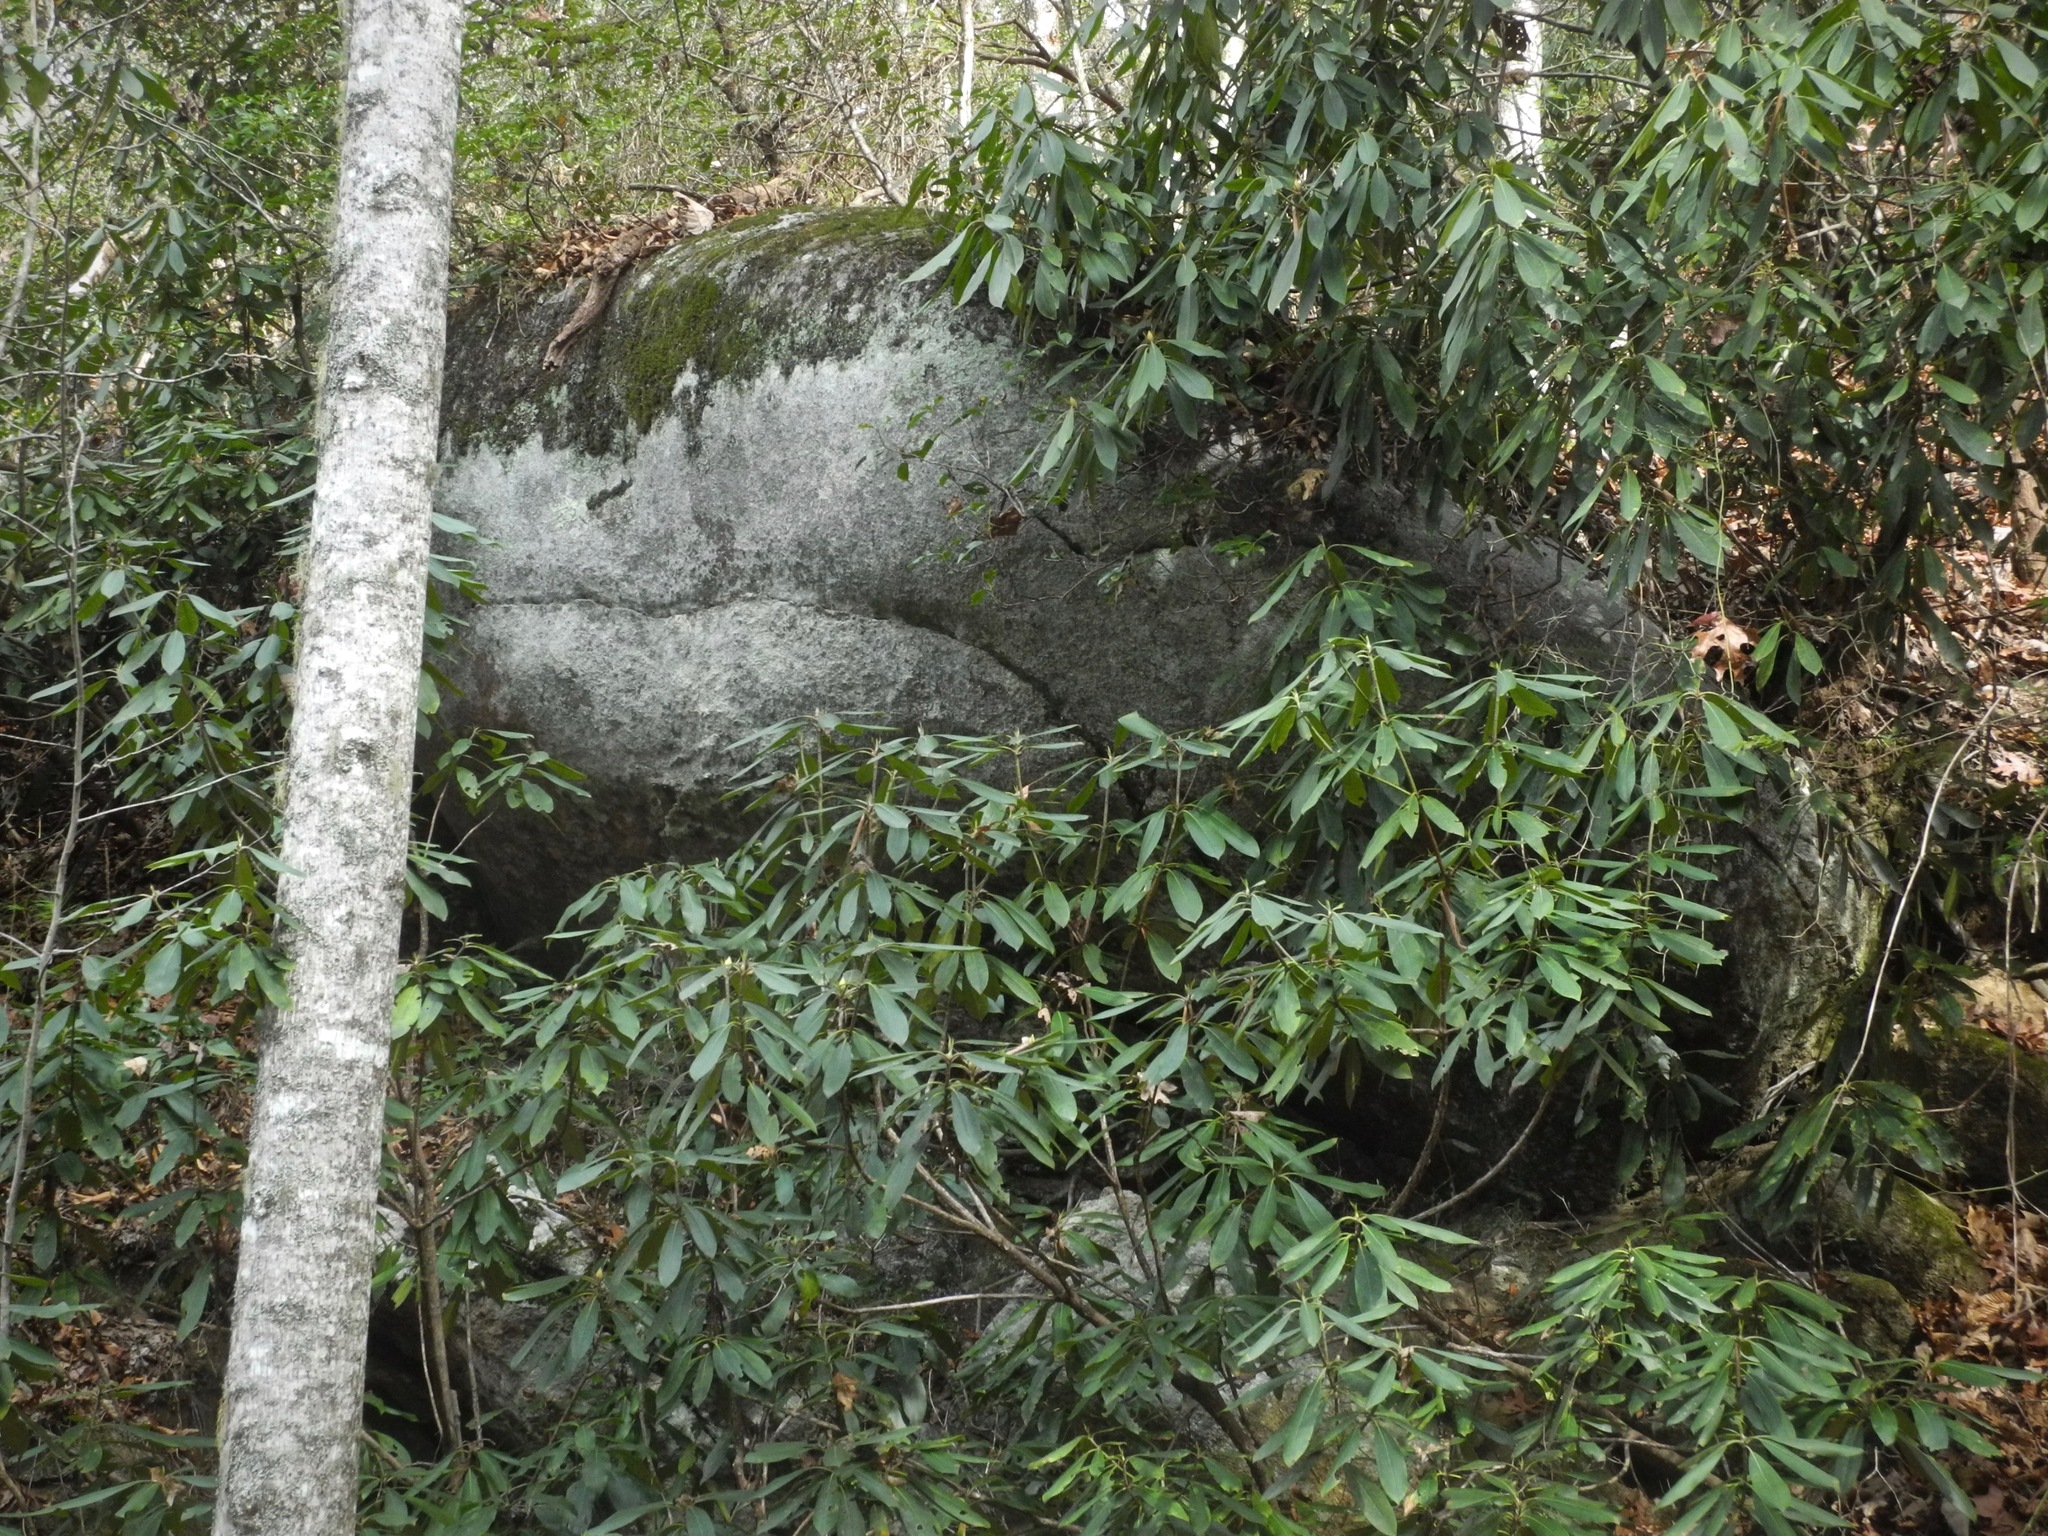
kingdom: Plantae
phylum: Tracheophyta
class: Magnoliopsida
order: Ericales
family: Ericaceae
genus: Rhododendron
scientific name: Rhododendron maximum
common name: Great rhododendron
